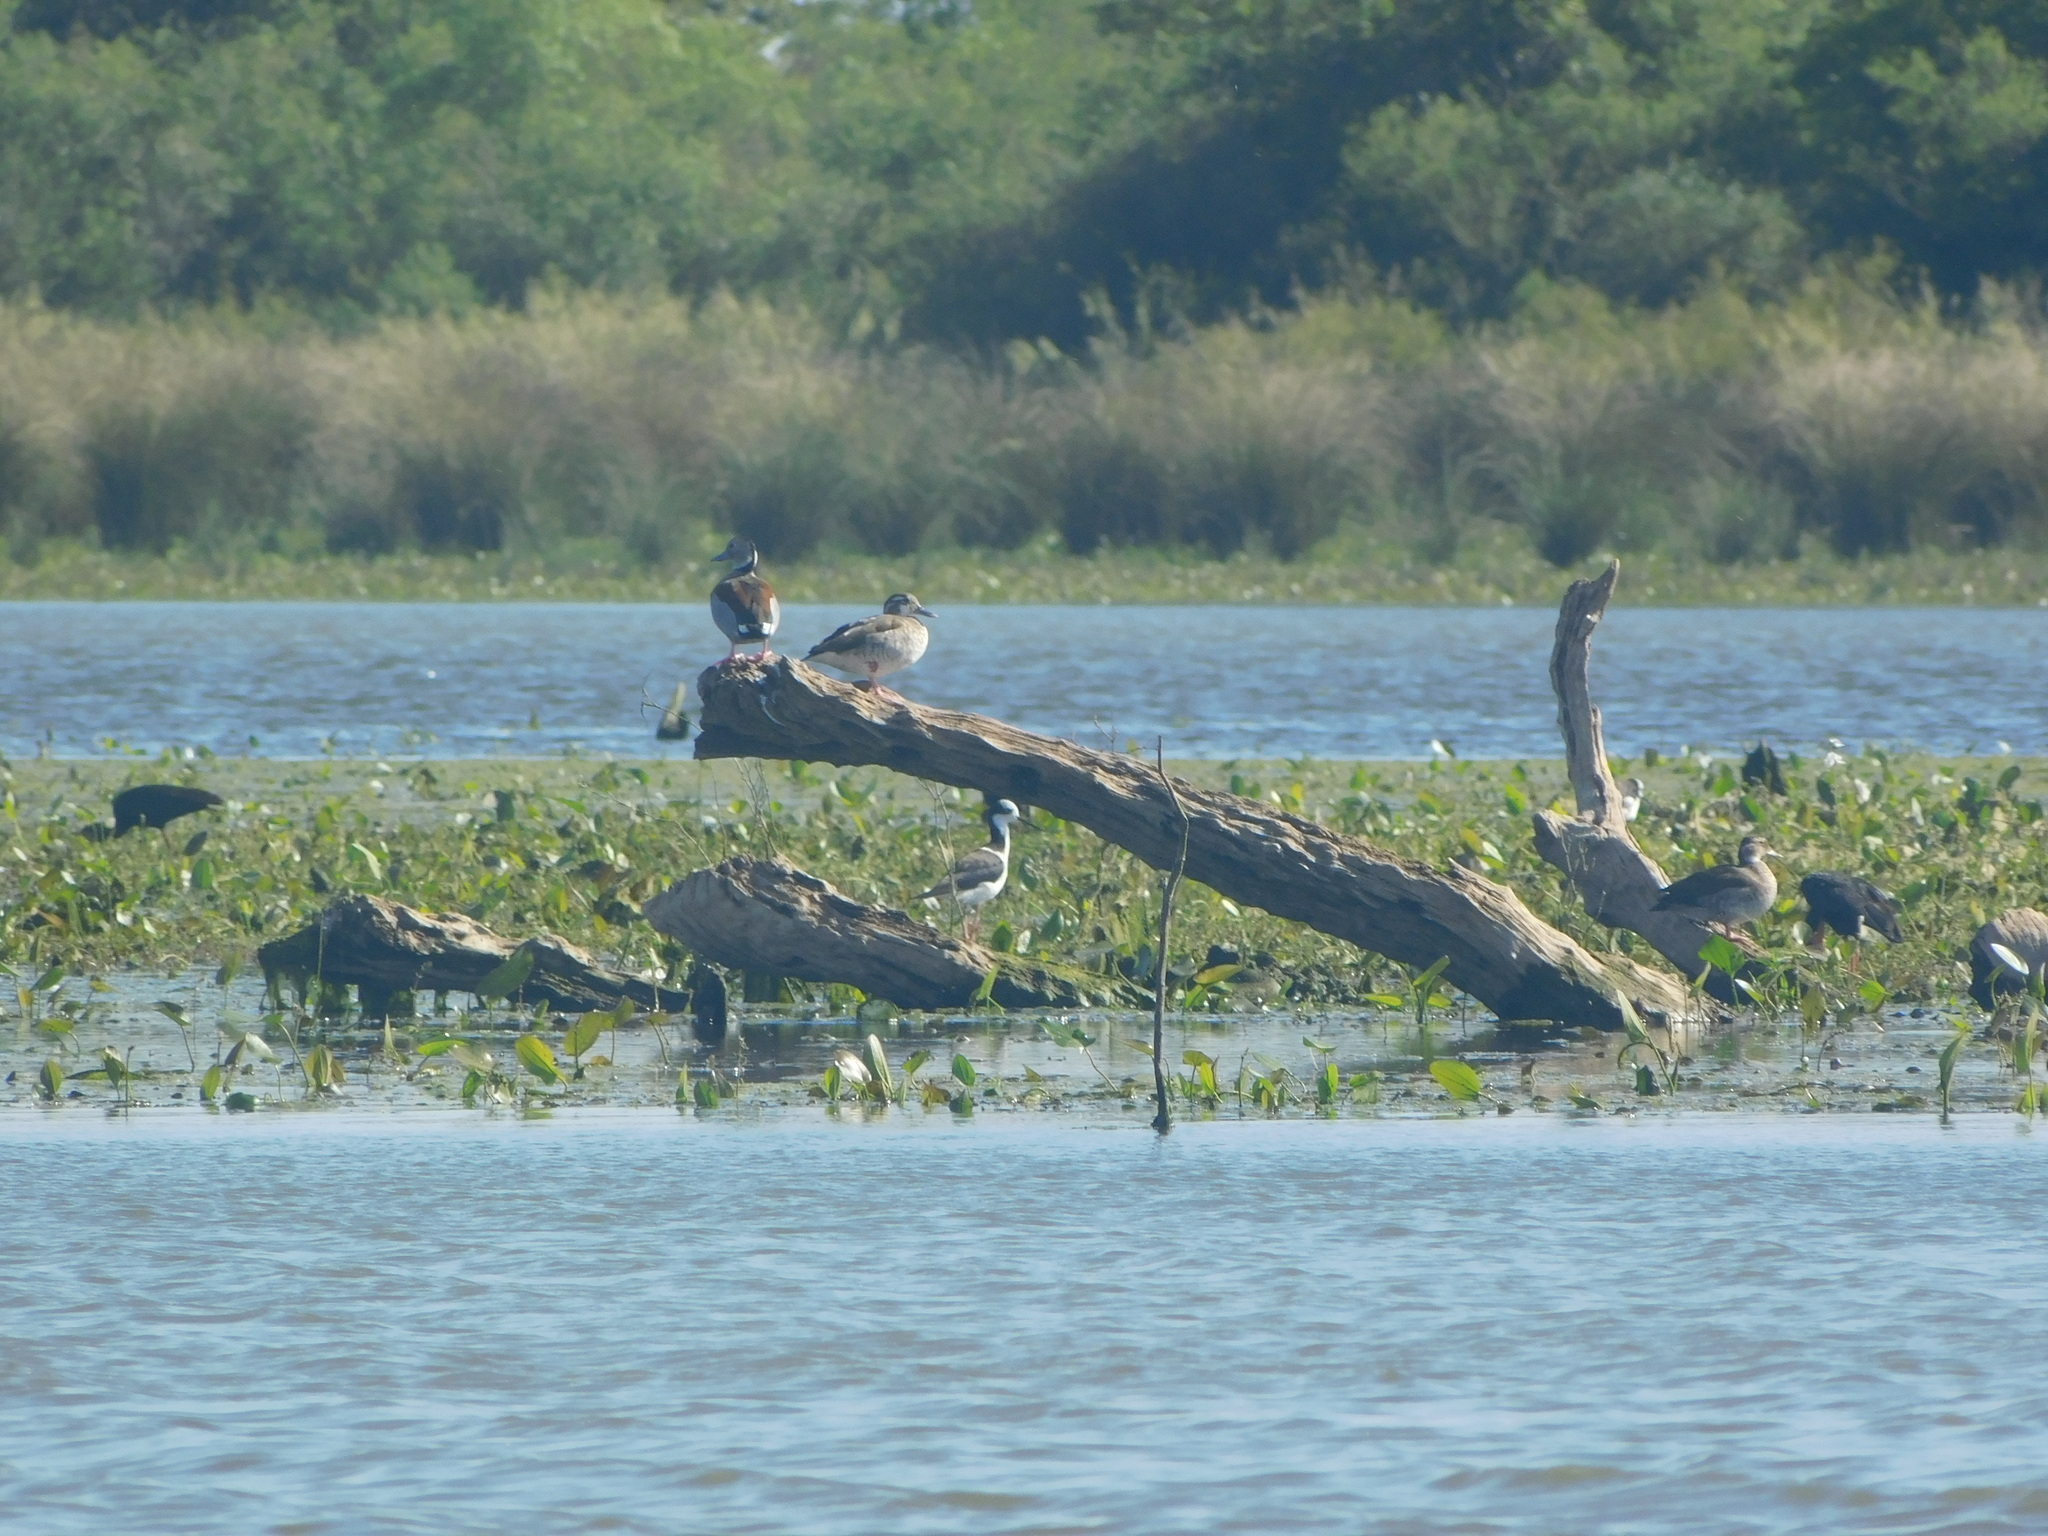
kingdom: Animalia
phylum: Chordata
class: Aves
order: Anseriformes
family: Anatidae
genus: Callonetta
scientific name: Callonetta leucophrys
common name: Ringed teal
